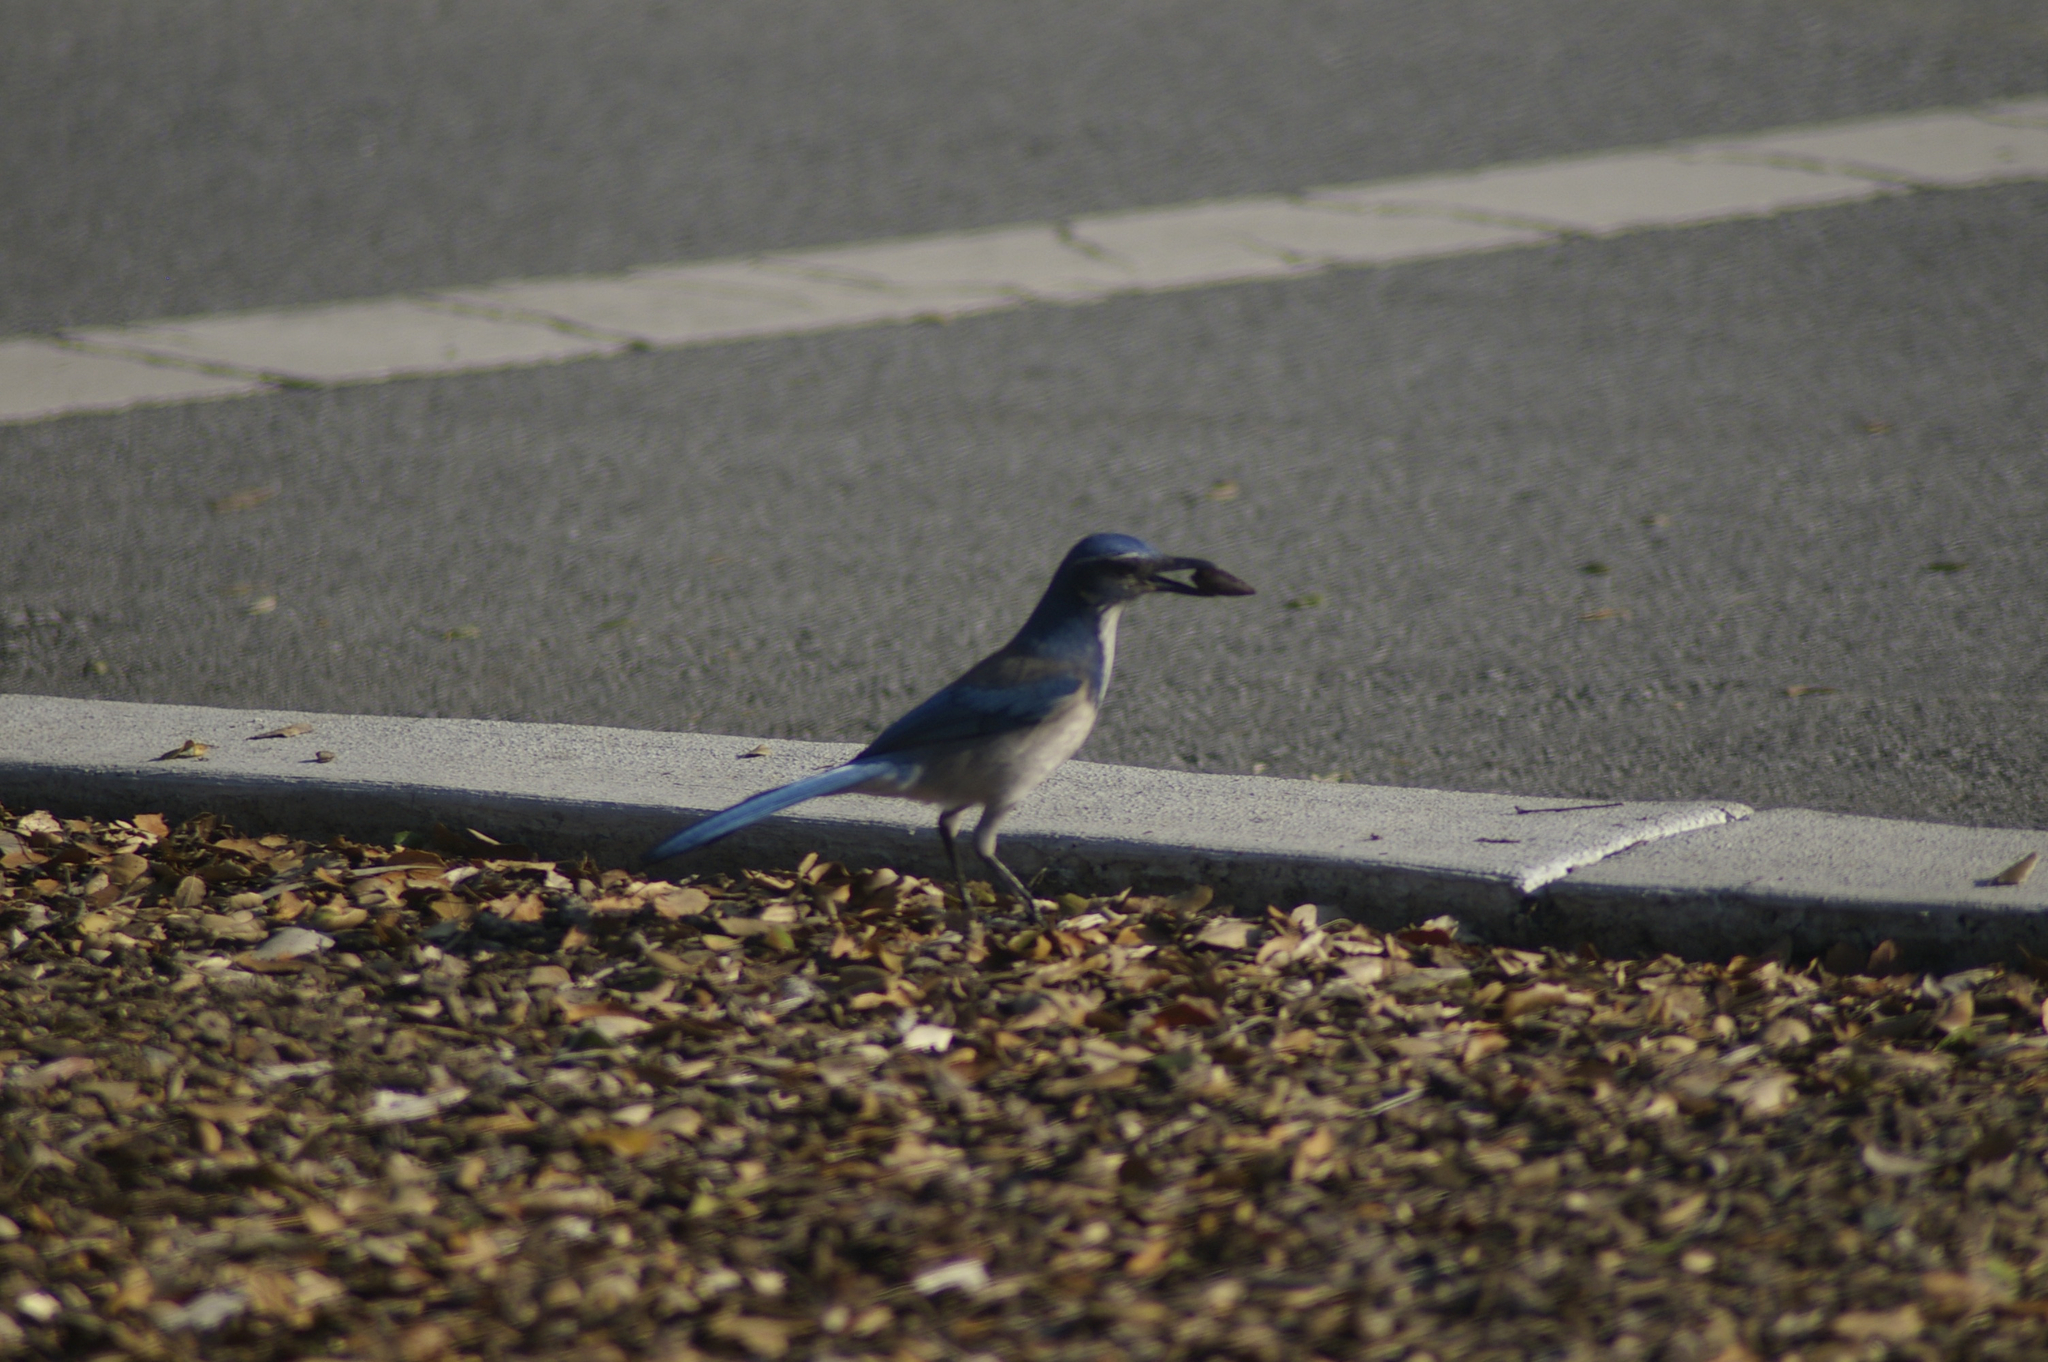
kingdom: Animalia
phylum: Chordata
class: Aves
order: Passeriformes
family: Corvidae
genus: Aphelocoma
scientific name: Aphelocoma californica
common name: California scrub-jay
